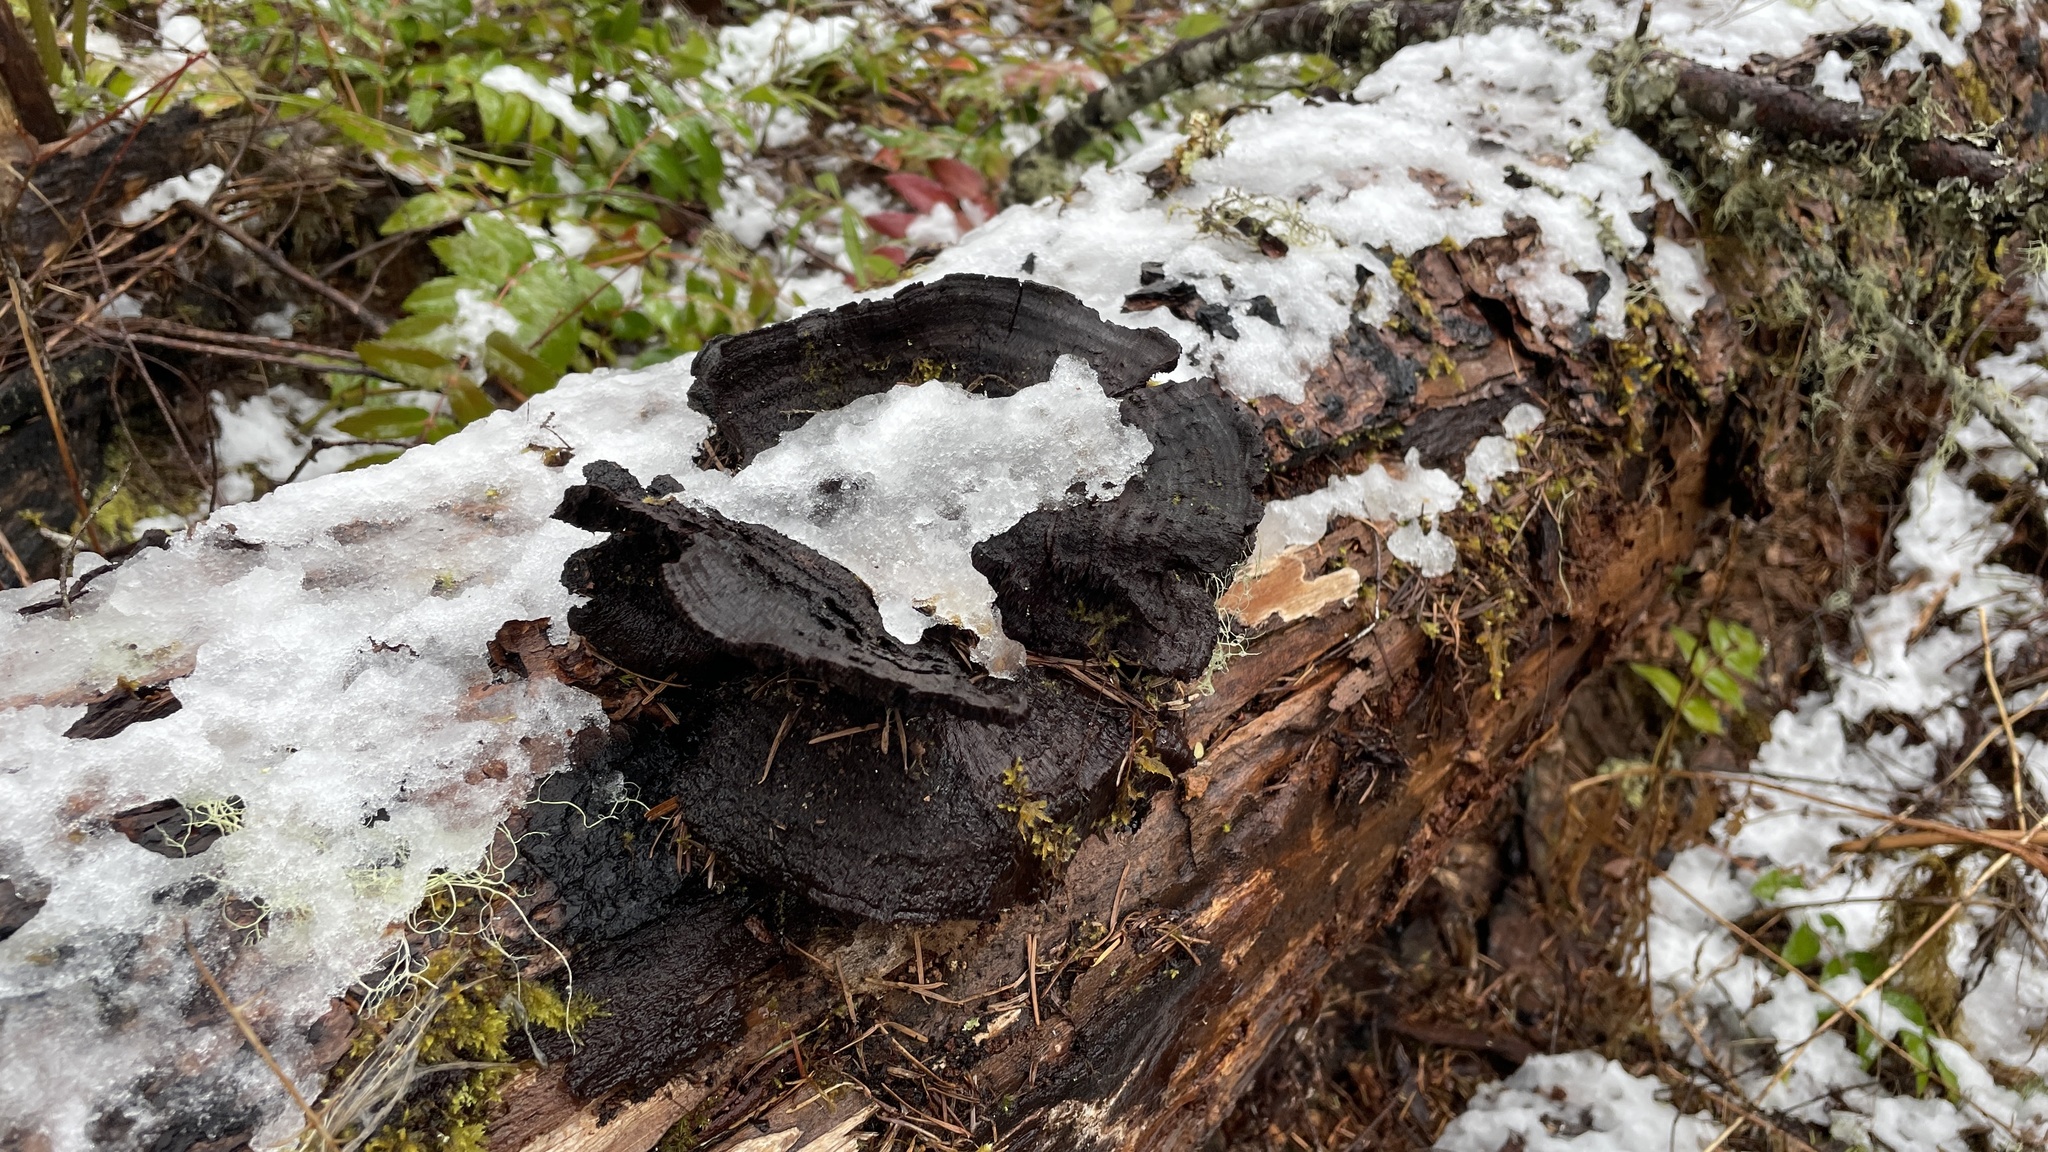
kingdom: Fungi
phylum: Basidiomycota
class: Agaricomycetes
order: Polyporales
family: Laetiporaceae
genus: Phaeolus
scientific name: Phaeolus schweinitzii
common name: Dyer's mazegill
